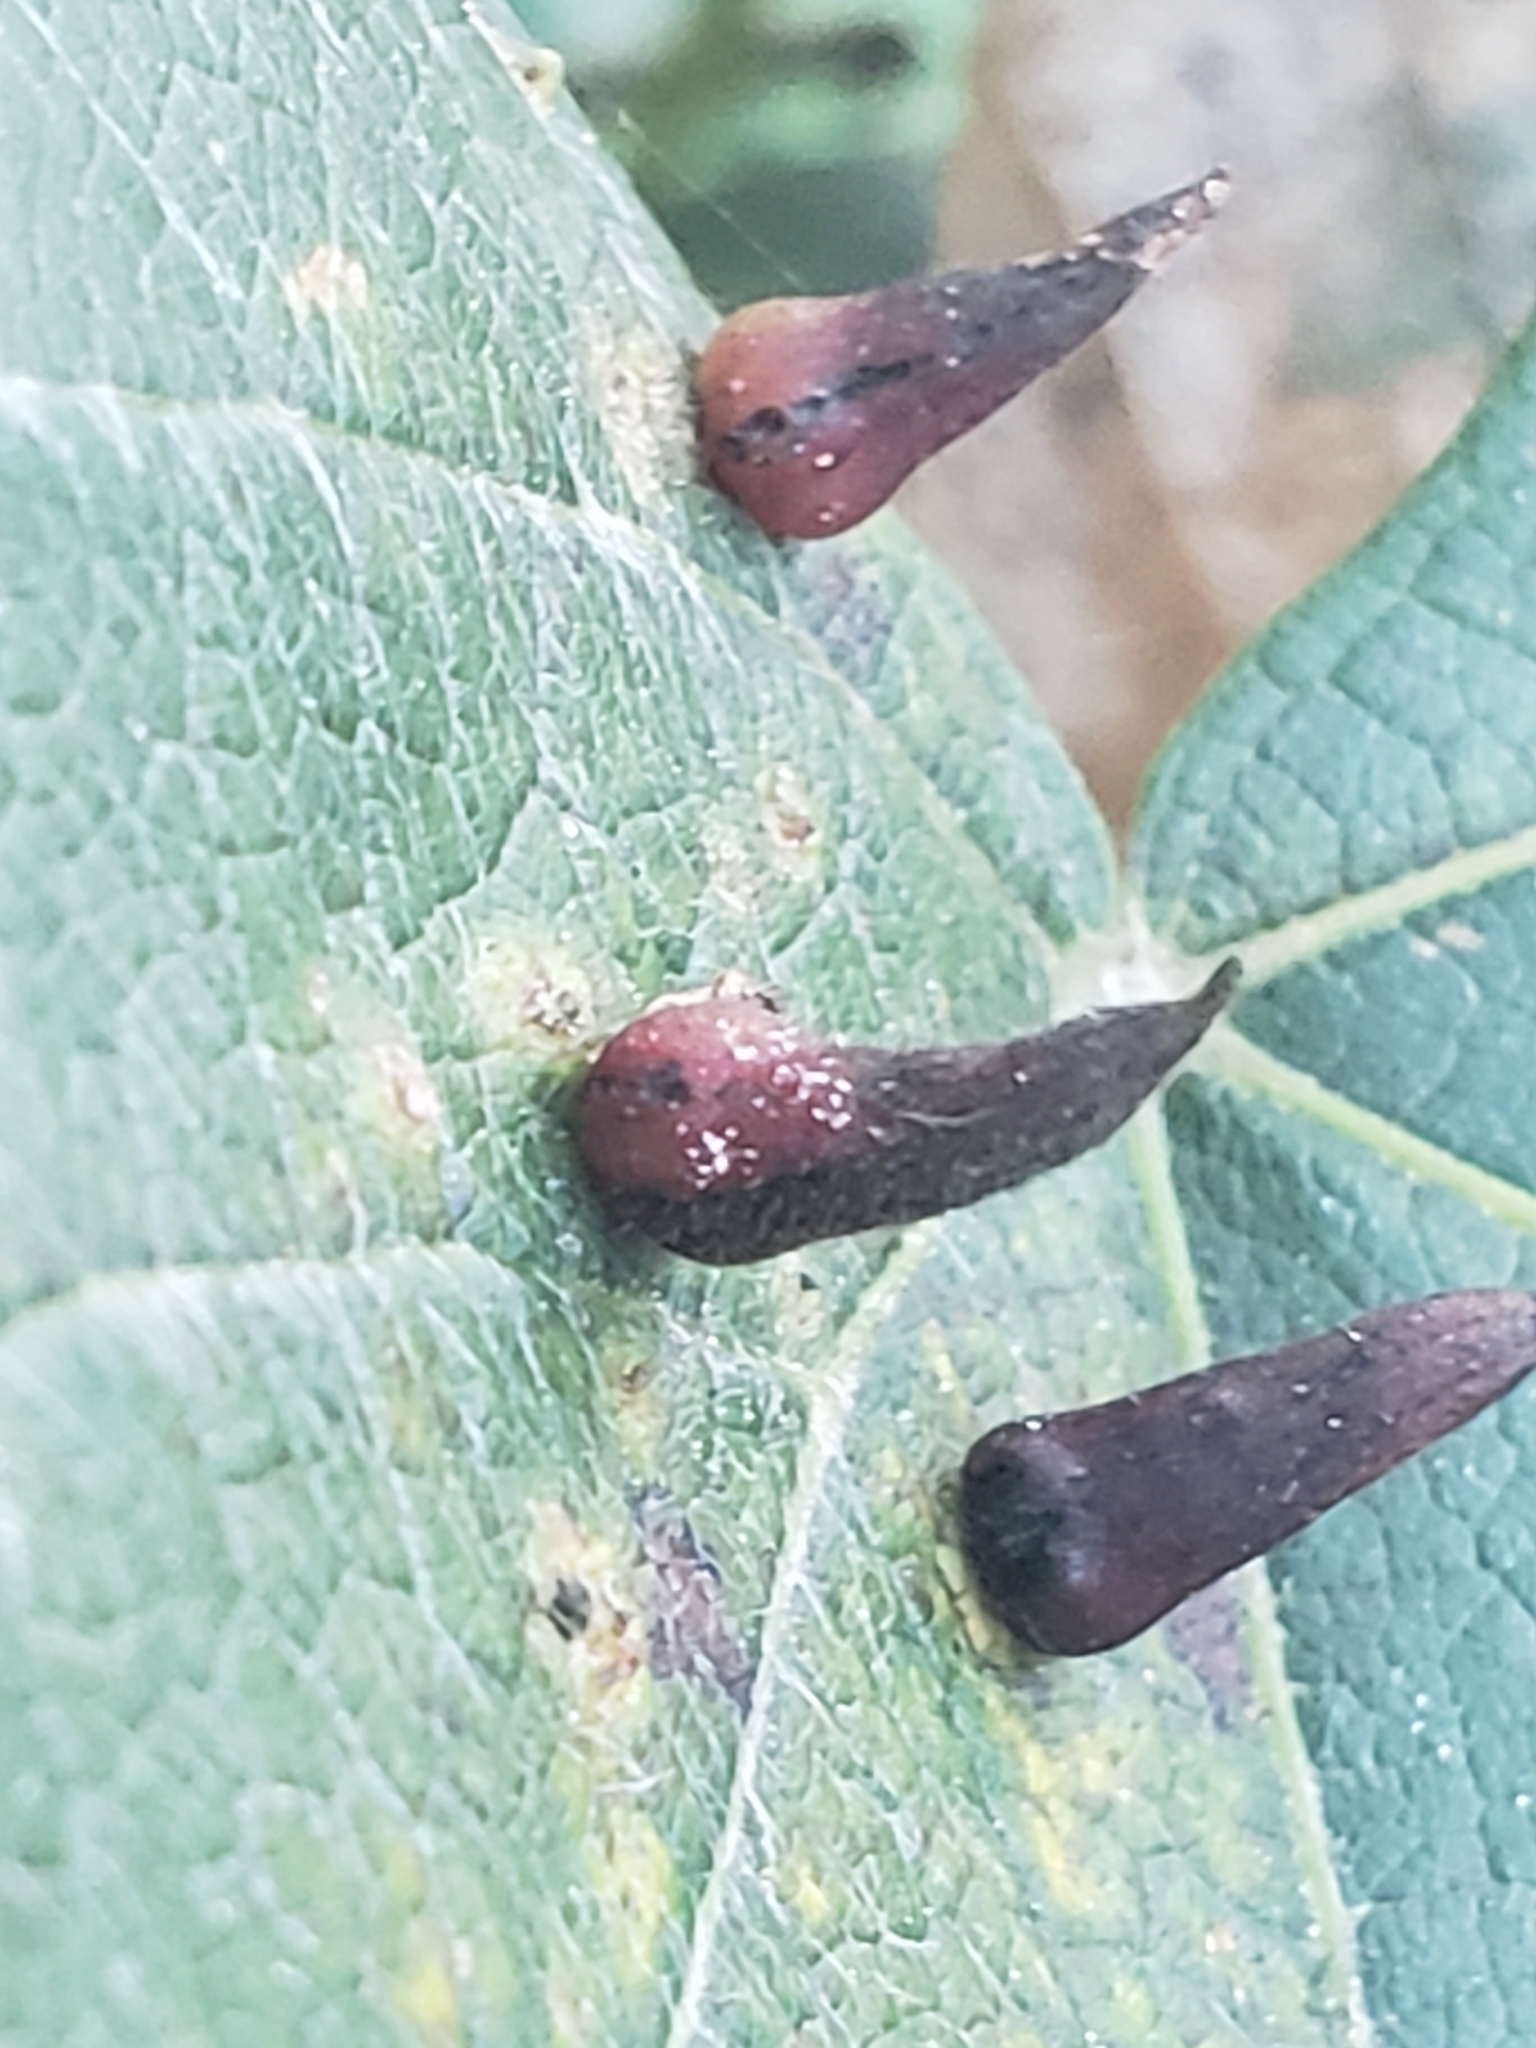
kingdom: Animalia
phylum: Arthropoda
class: Insecta
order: Diptera
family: Cecidomyiidae
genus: Ampelomyia
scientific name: Ampelomyia viticola
